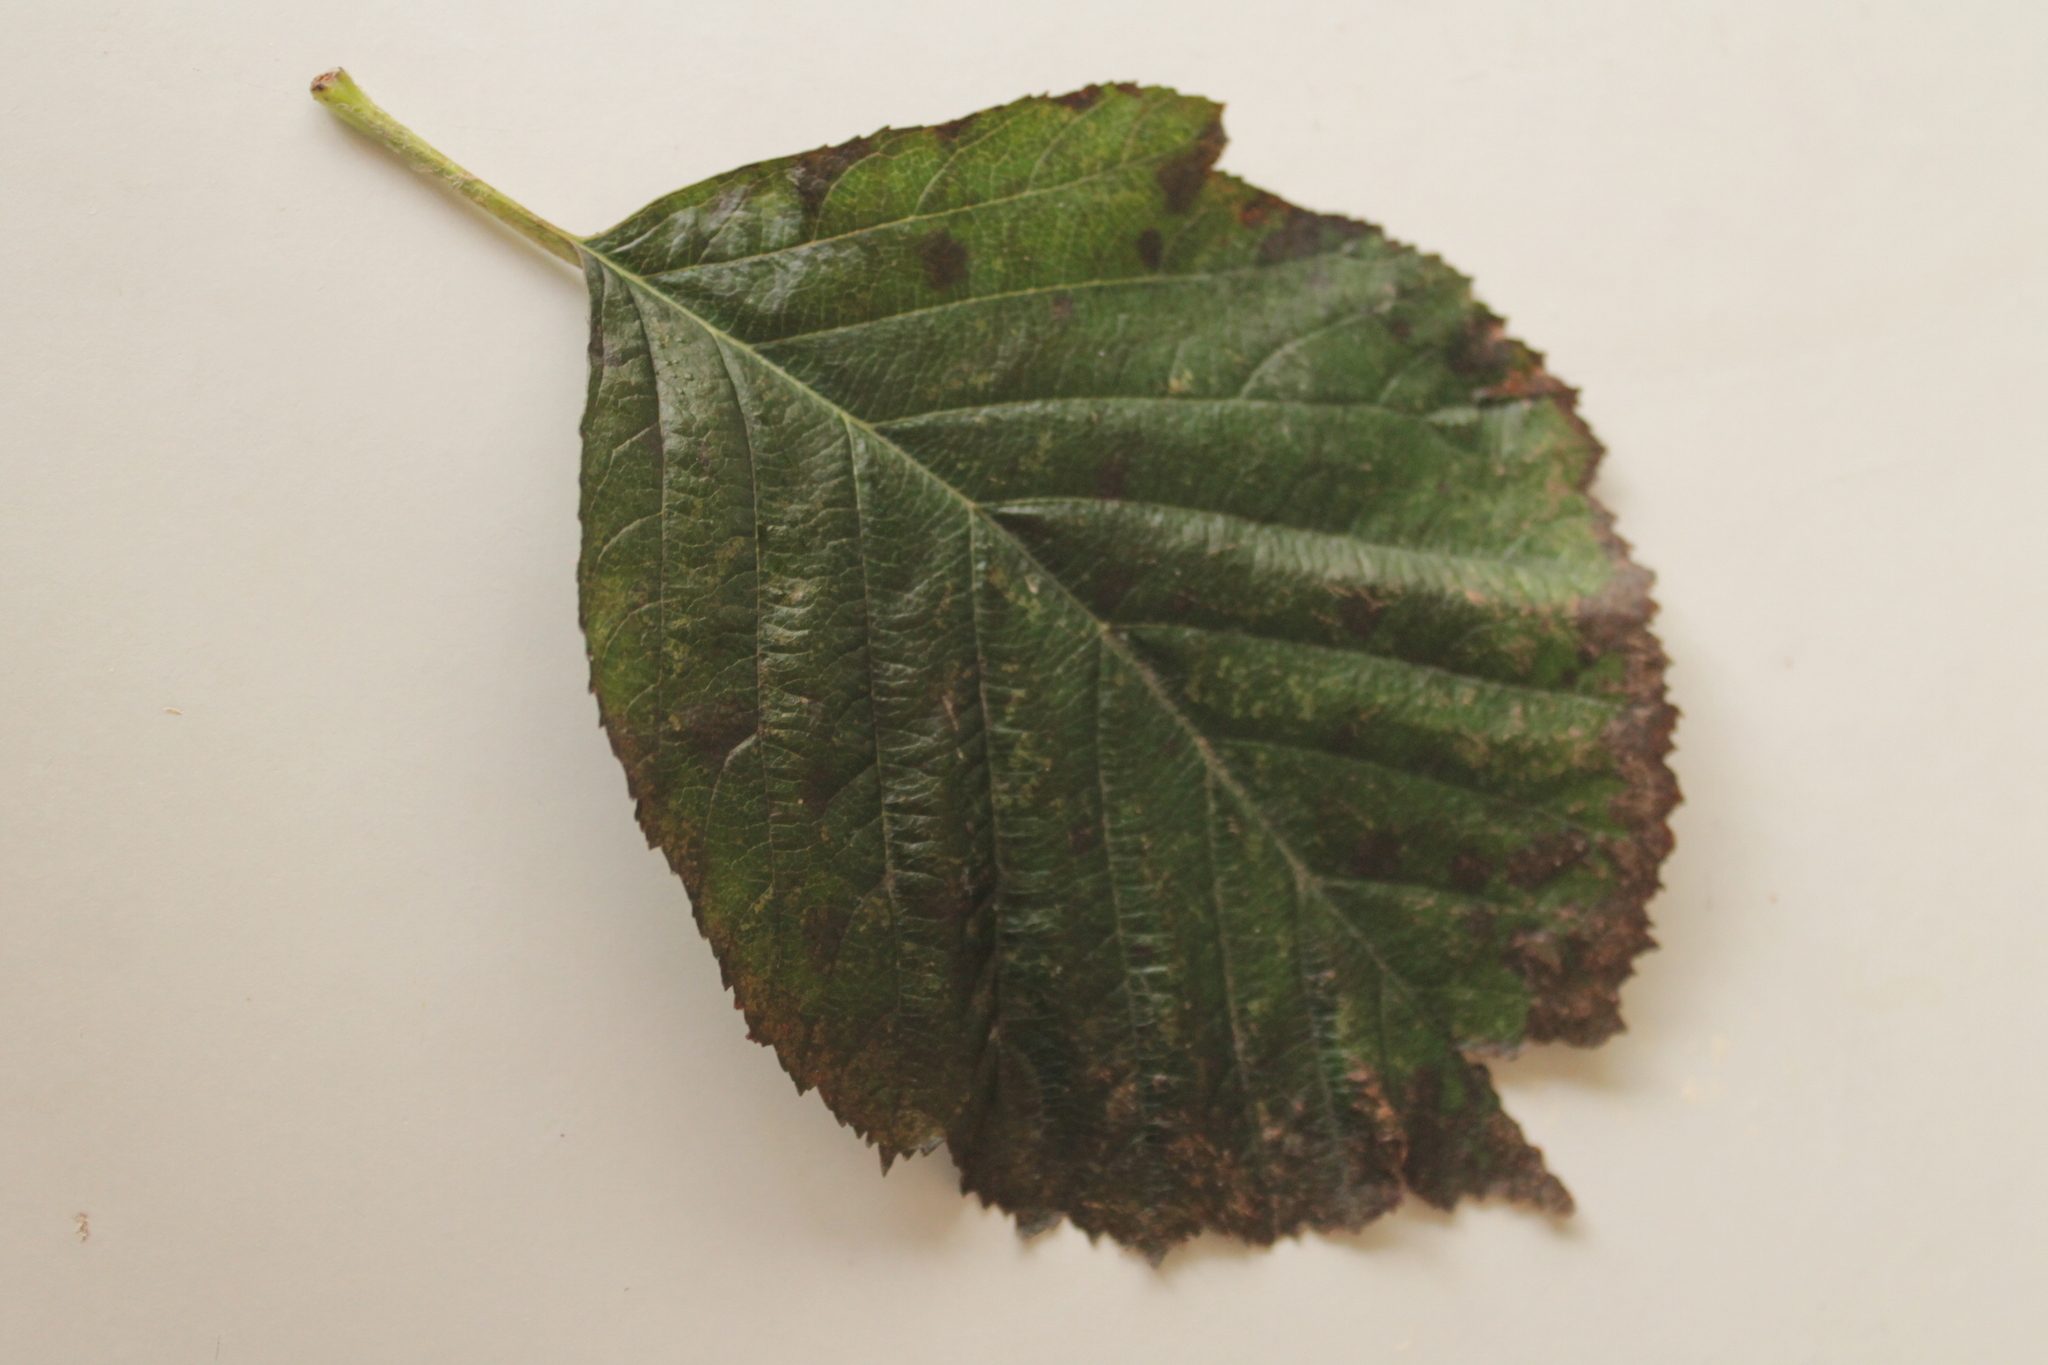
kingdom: Plantae
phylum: Tracheophyta
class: Magnoliopsida
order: Rosales
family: Rosaceae
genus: Karpatiosorbus
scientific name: Karpatiosorbus croceocarpa
